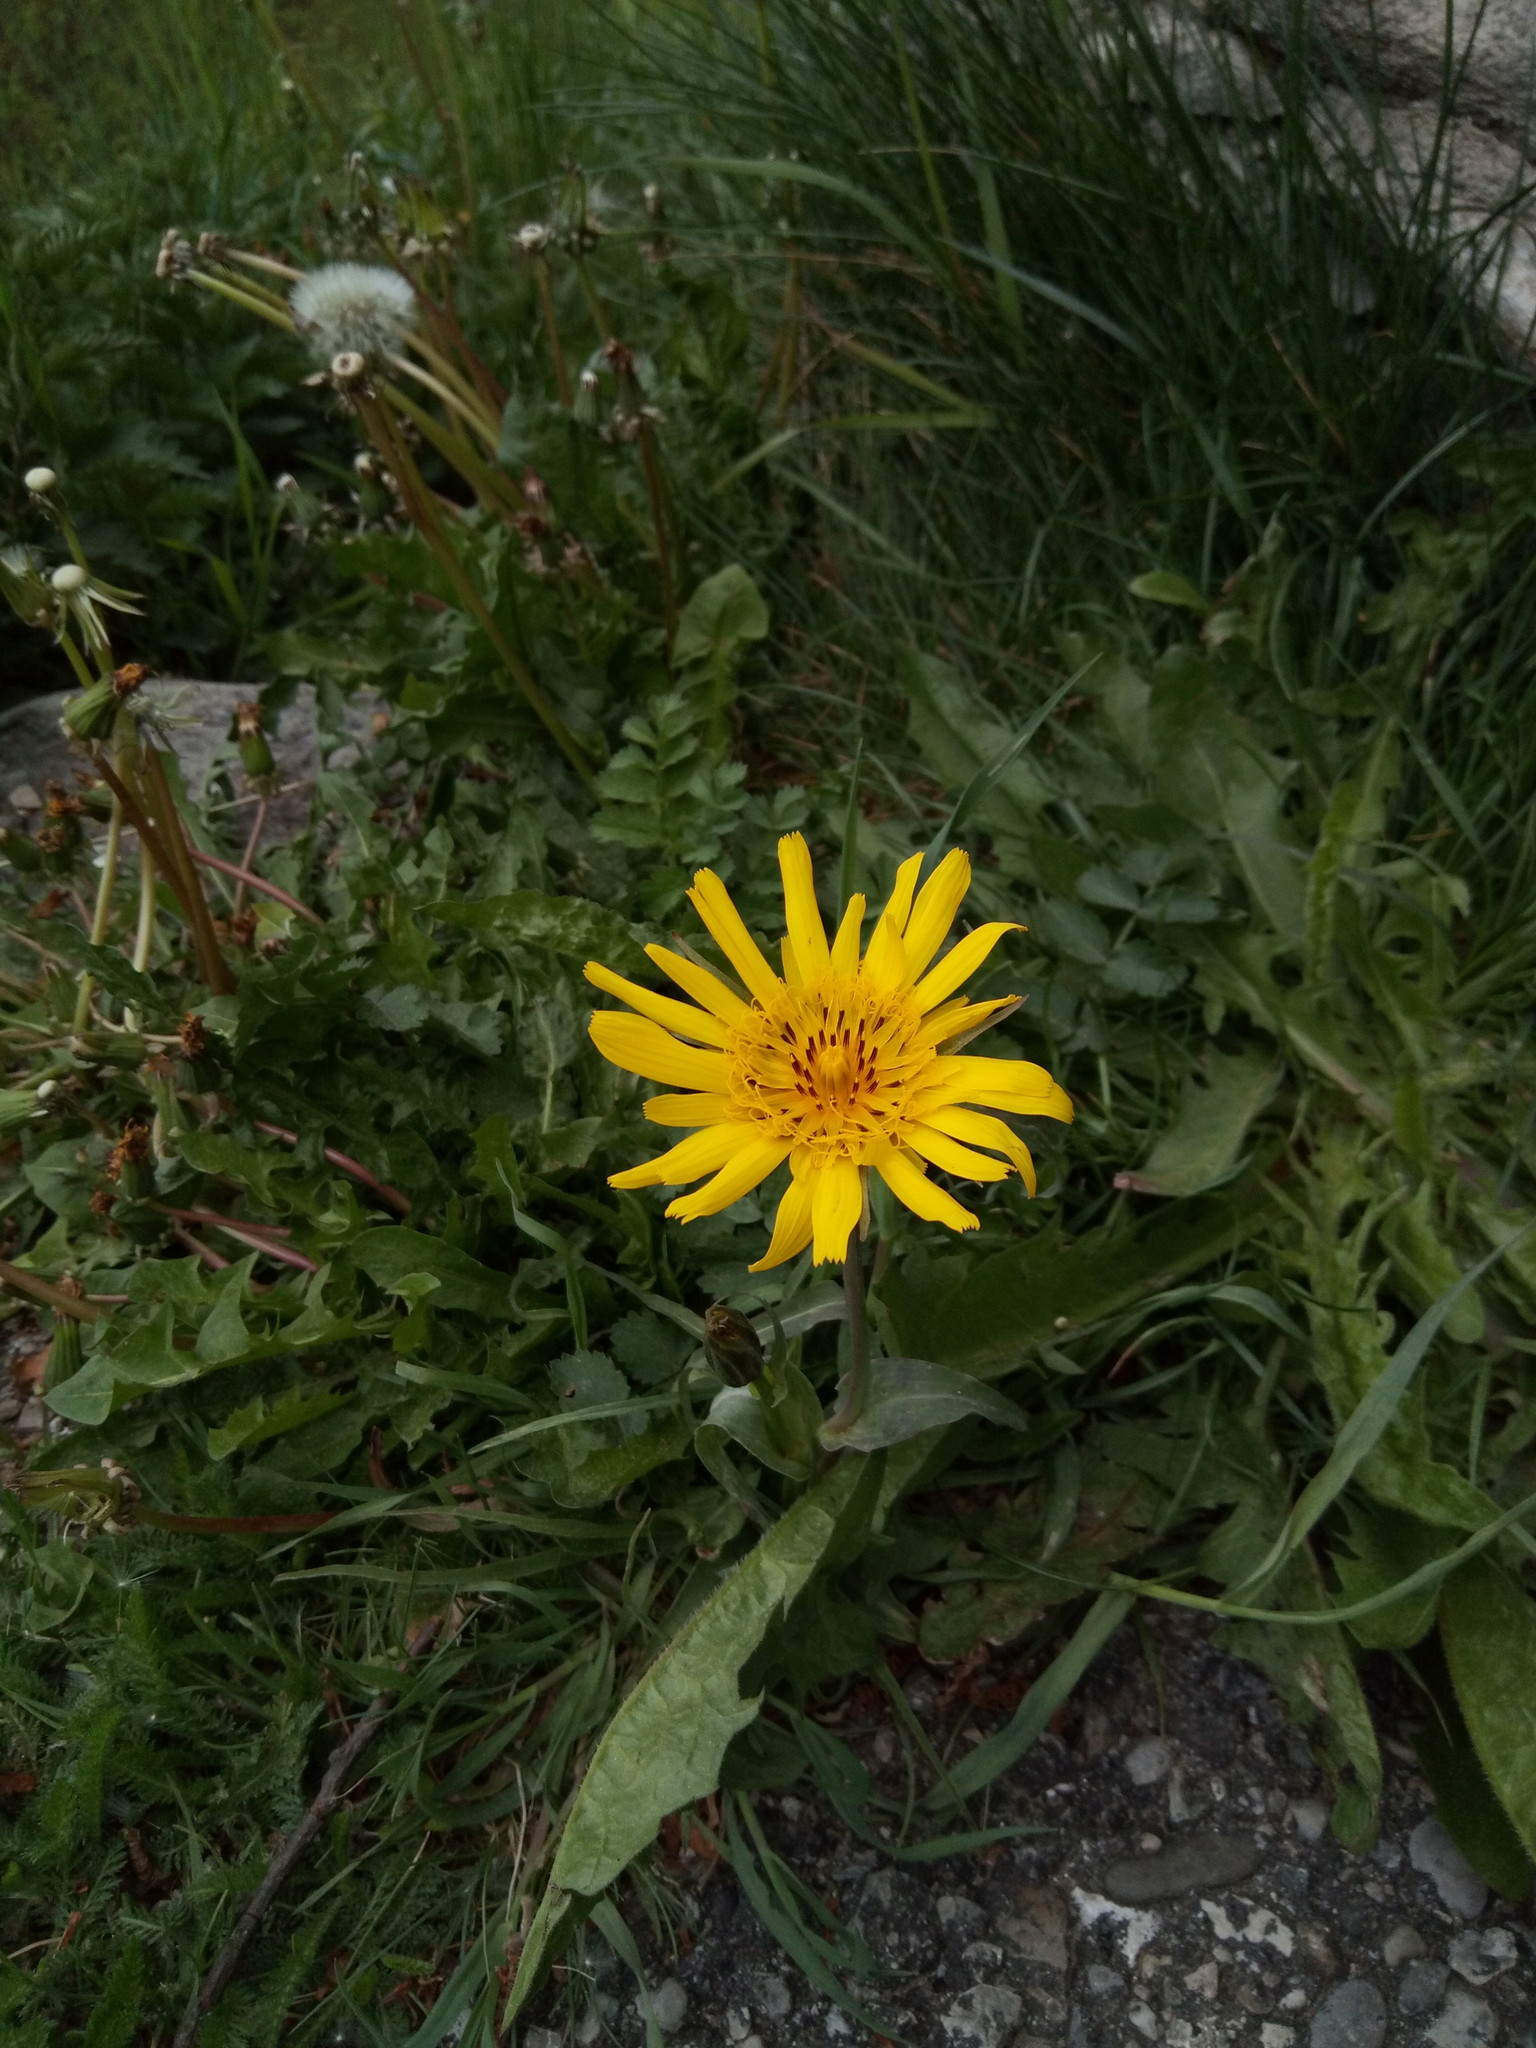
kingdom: Plantae
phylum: Tracheophyta
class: Magnoliopsida
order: Asterales
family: Asteraceae
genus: Tragopogon
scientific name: Tragopogon orientalis
